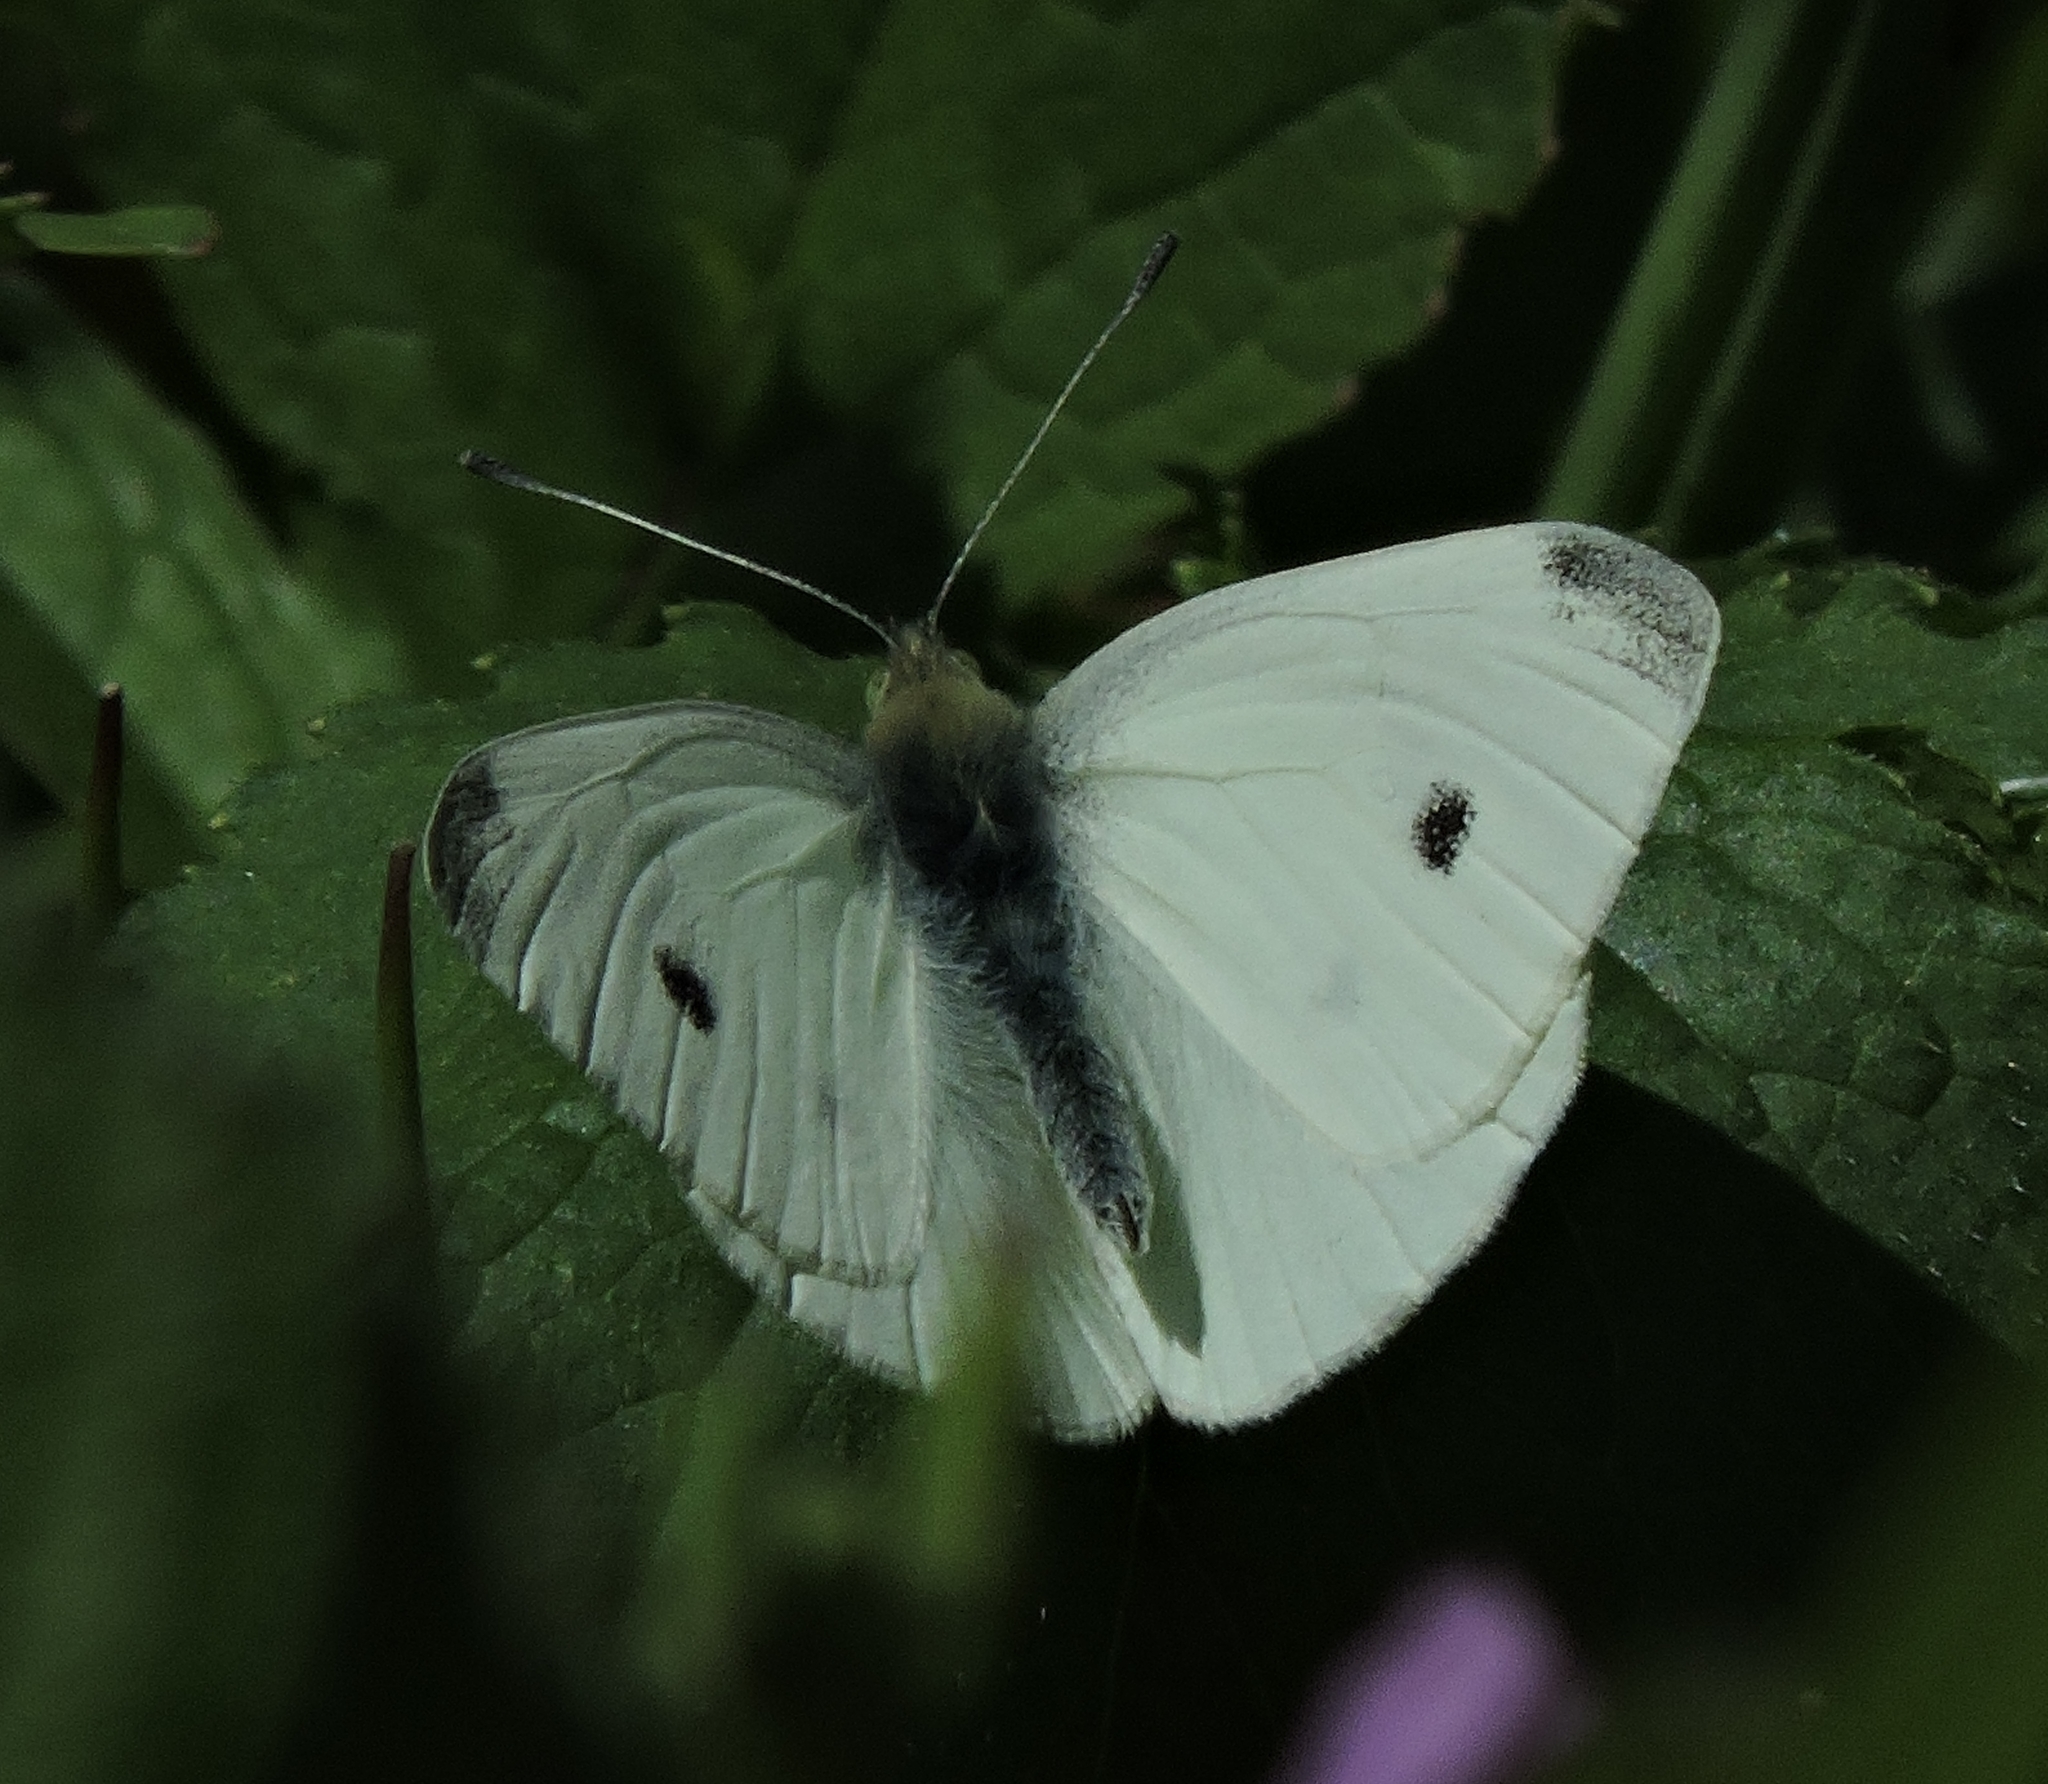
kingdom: Animalia
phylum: Arthropoda
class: Insecta
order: Lepidoptera
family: Pieridae
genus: Pieris
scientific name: Pieris rapae
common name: Small white
